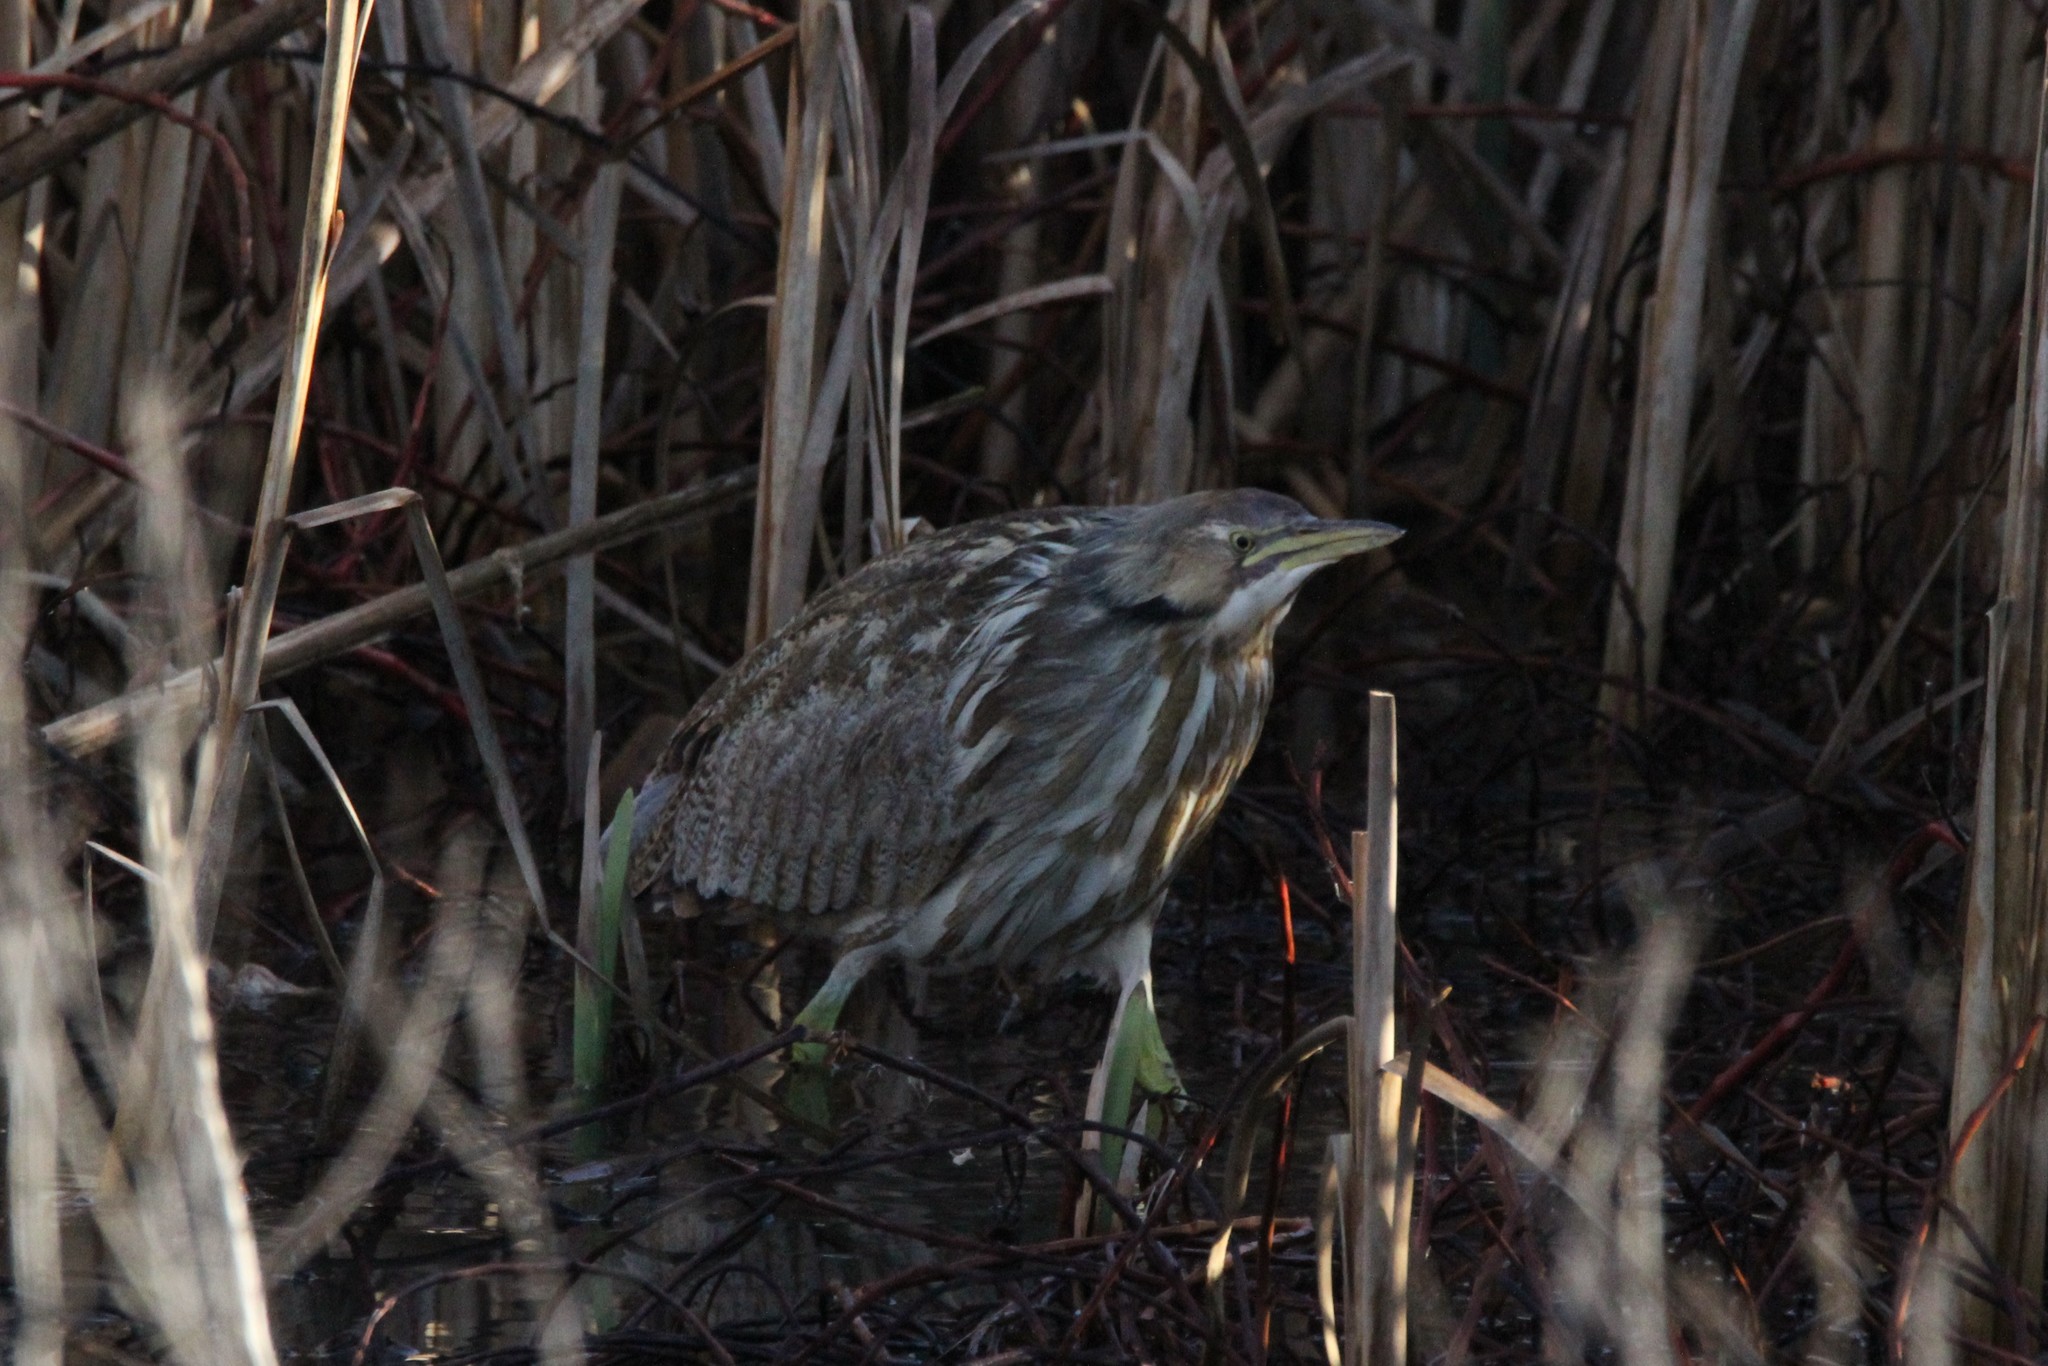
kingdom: Animalia
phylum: Chordata
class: Aves
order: Pelecaniformes
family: Ardeidae
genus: Botaurus
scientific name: Botaurus lentiginosus
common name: American bittern
